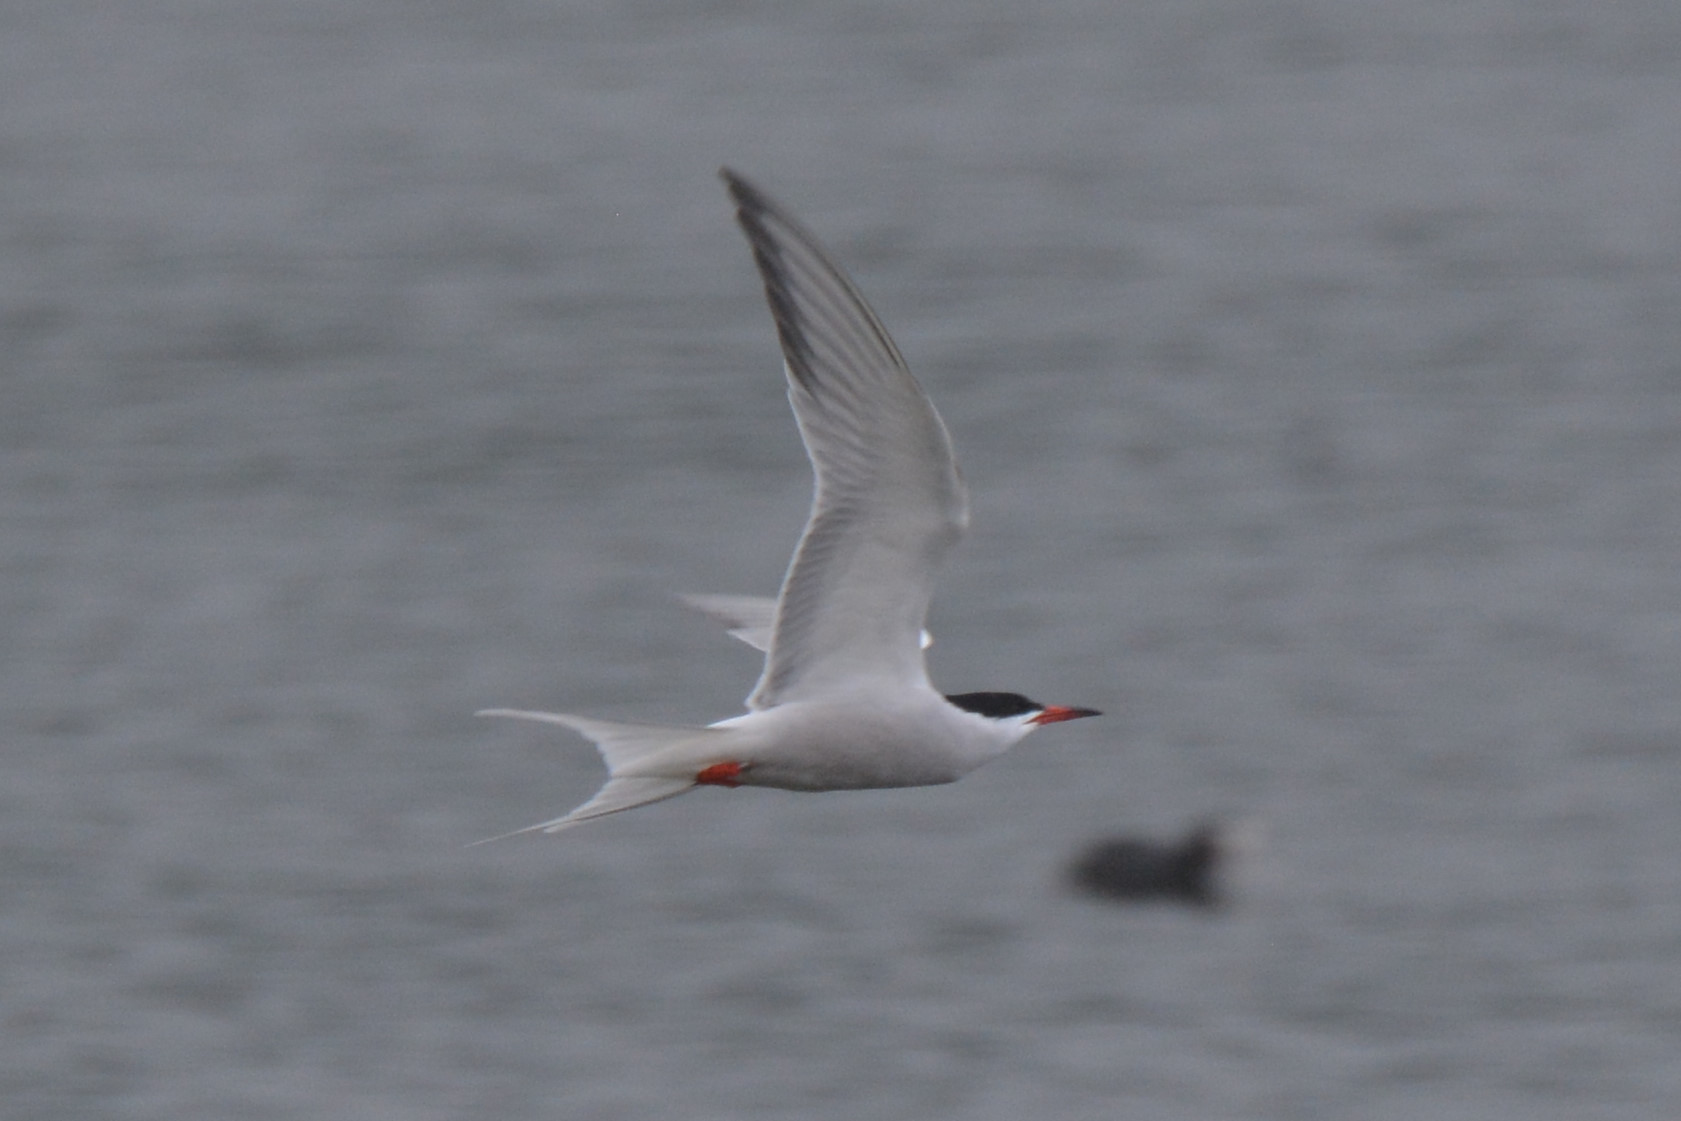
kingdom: Animalia
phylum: Chordata
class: Aves
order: Charadriiformes
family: Laridae
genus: Sterna
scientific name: Sterna hirundo
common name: Common tern
